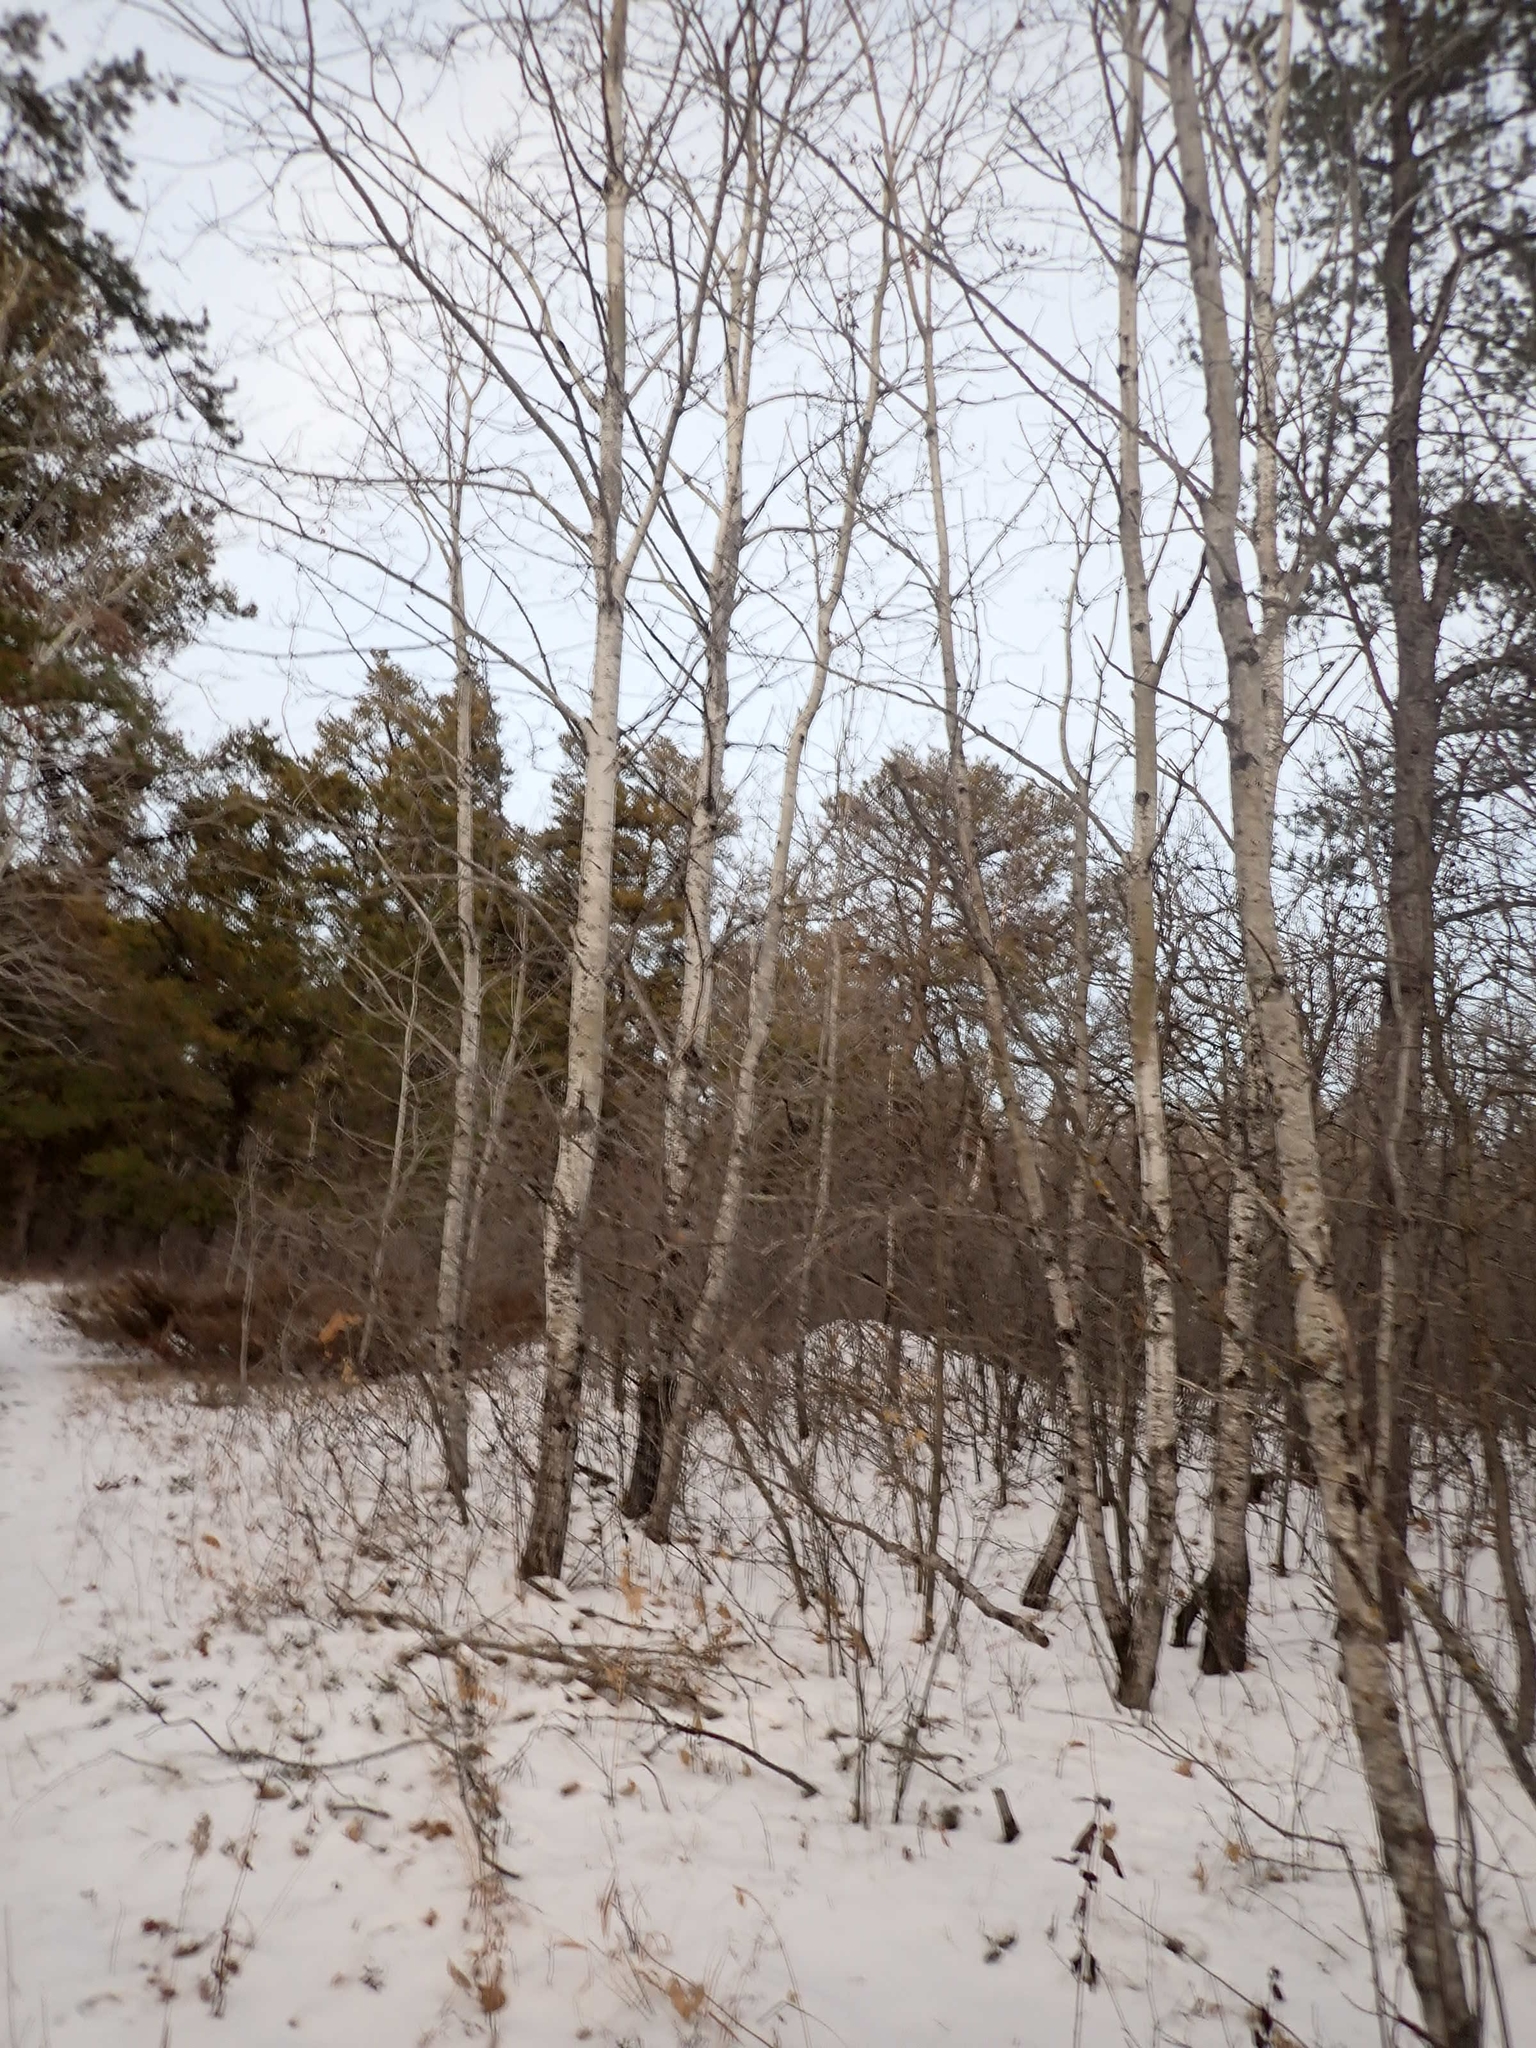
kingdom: Plantae
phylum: Tracheophyta
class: Magnoliopsida
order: Malpighiales
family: Salicaceae
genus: Populus
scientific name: Populus tremuloides
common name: Quaking aspen
